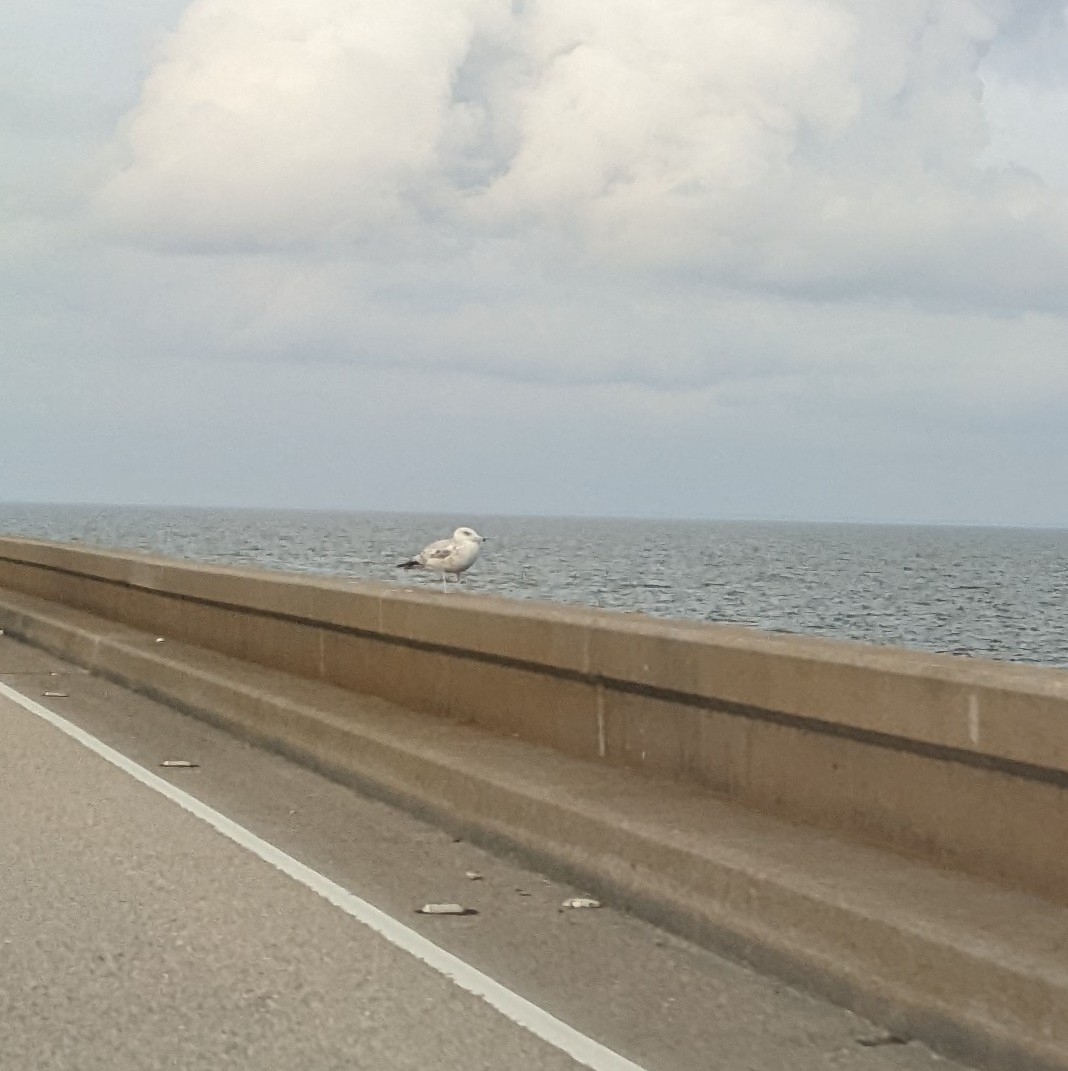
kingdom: Animalia
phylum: Chordata
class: Aves
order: Charadriiformes
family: Laridae
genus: Larus
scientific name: Larus argentatus
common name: Herring gull
